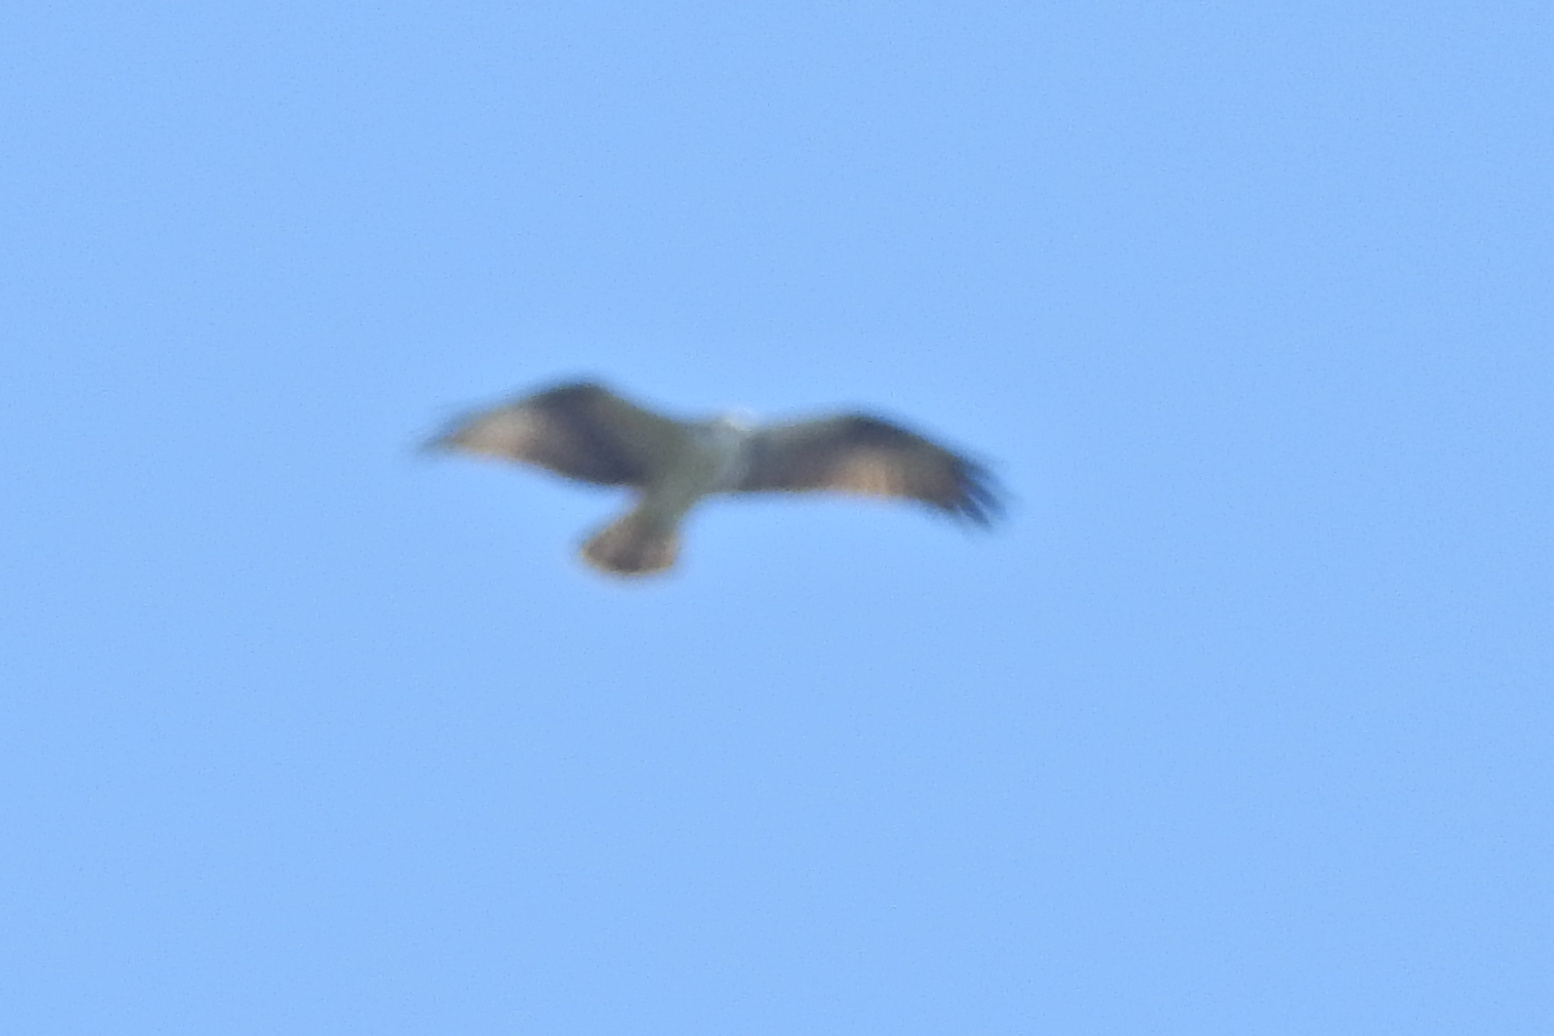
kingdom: Animalia
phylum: Chordata
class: Aves
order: Accipitriformes
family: Pandionidae
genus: Pandion
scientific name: Pandion haliaetus
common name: Osprey
